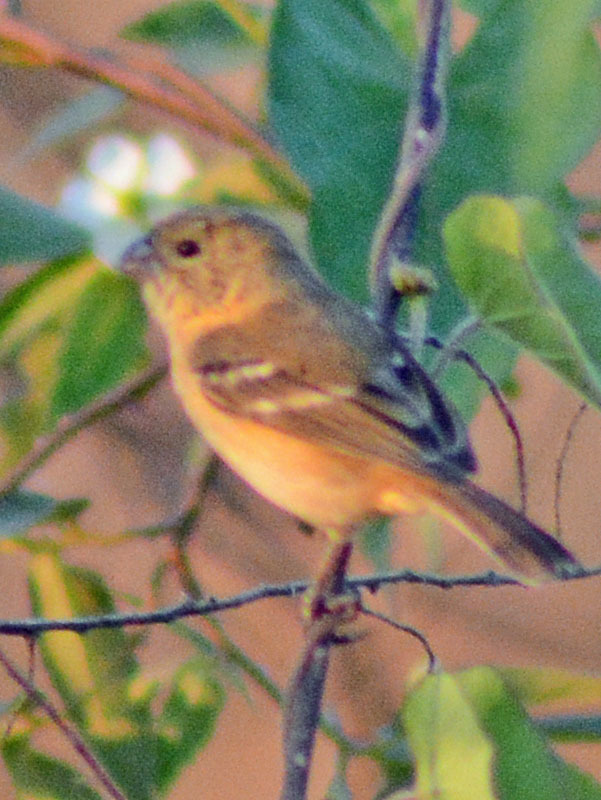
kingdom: Animalia
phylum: Chordata
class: Aves
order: Passeriformes
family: Thraupidae
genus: Sporophila
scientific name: Sporophila morelleti
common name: Morelet's seedeater
